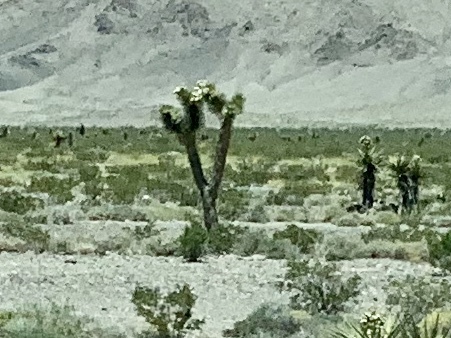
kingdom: Plantae
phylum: Tracheophyta
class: Liliopsida
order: Asparagales
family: Asparagaceae
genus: Yucca
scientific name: Yucca brevifolia
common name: Joshua tree
